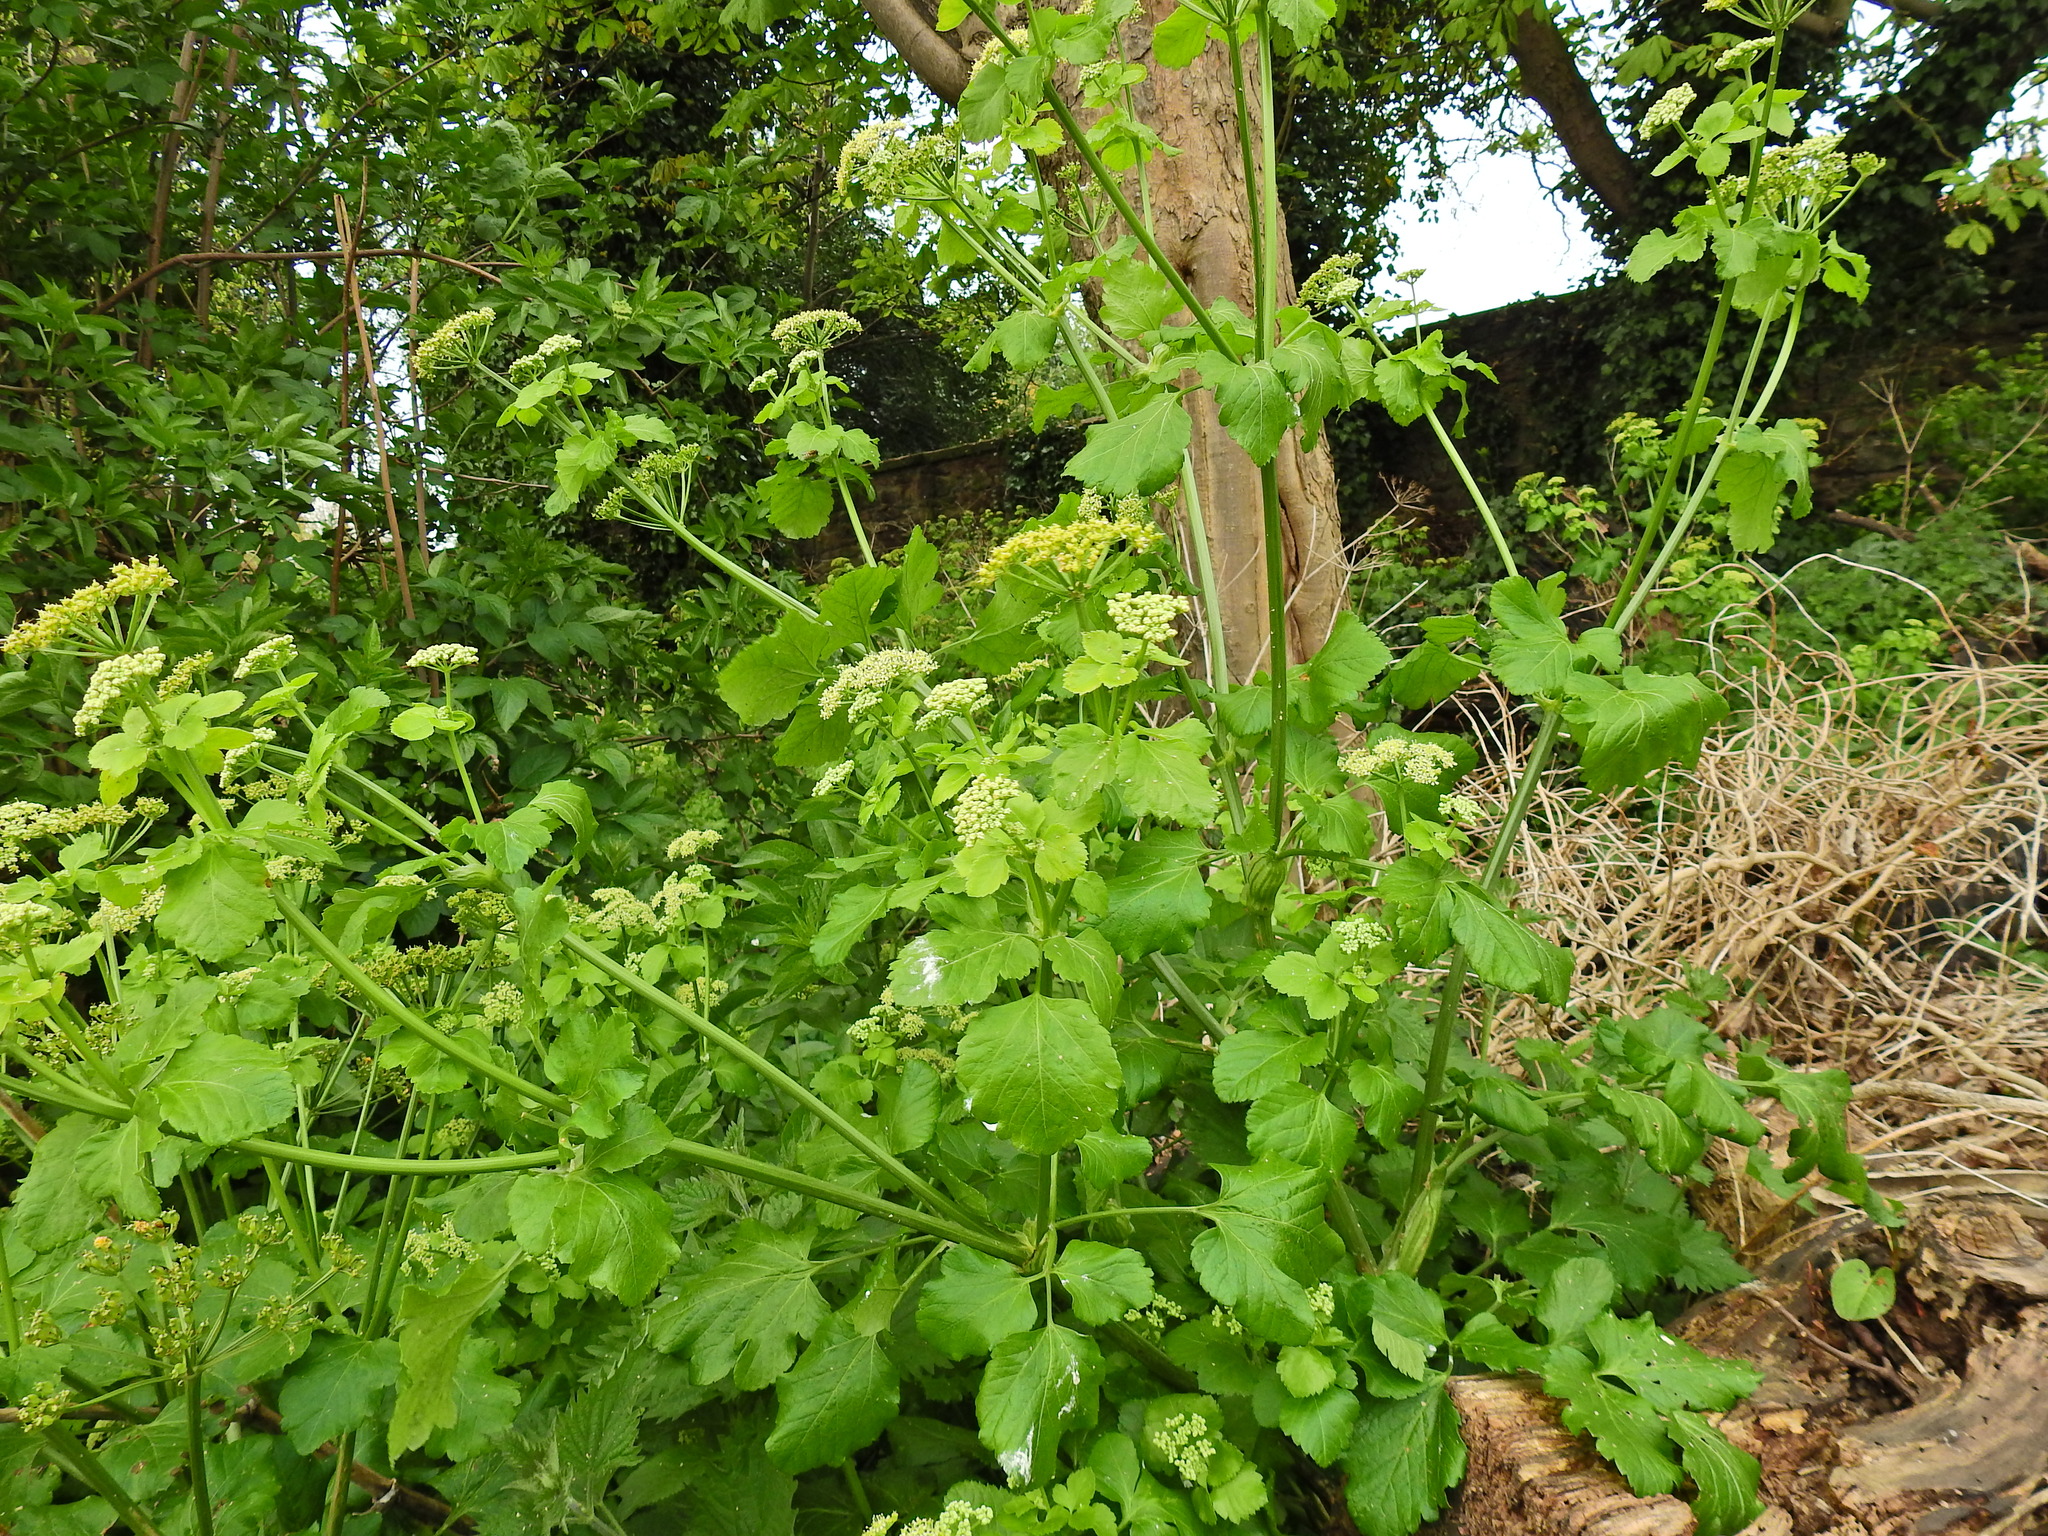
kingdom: Plantae
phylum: Tracheophyta
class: Magnoliopsida
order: Apiales
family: Apiaceae
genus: Smyrnium
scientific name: Smyrnium olusatrum
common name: Alexanders
